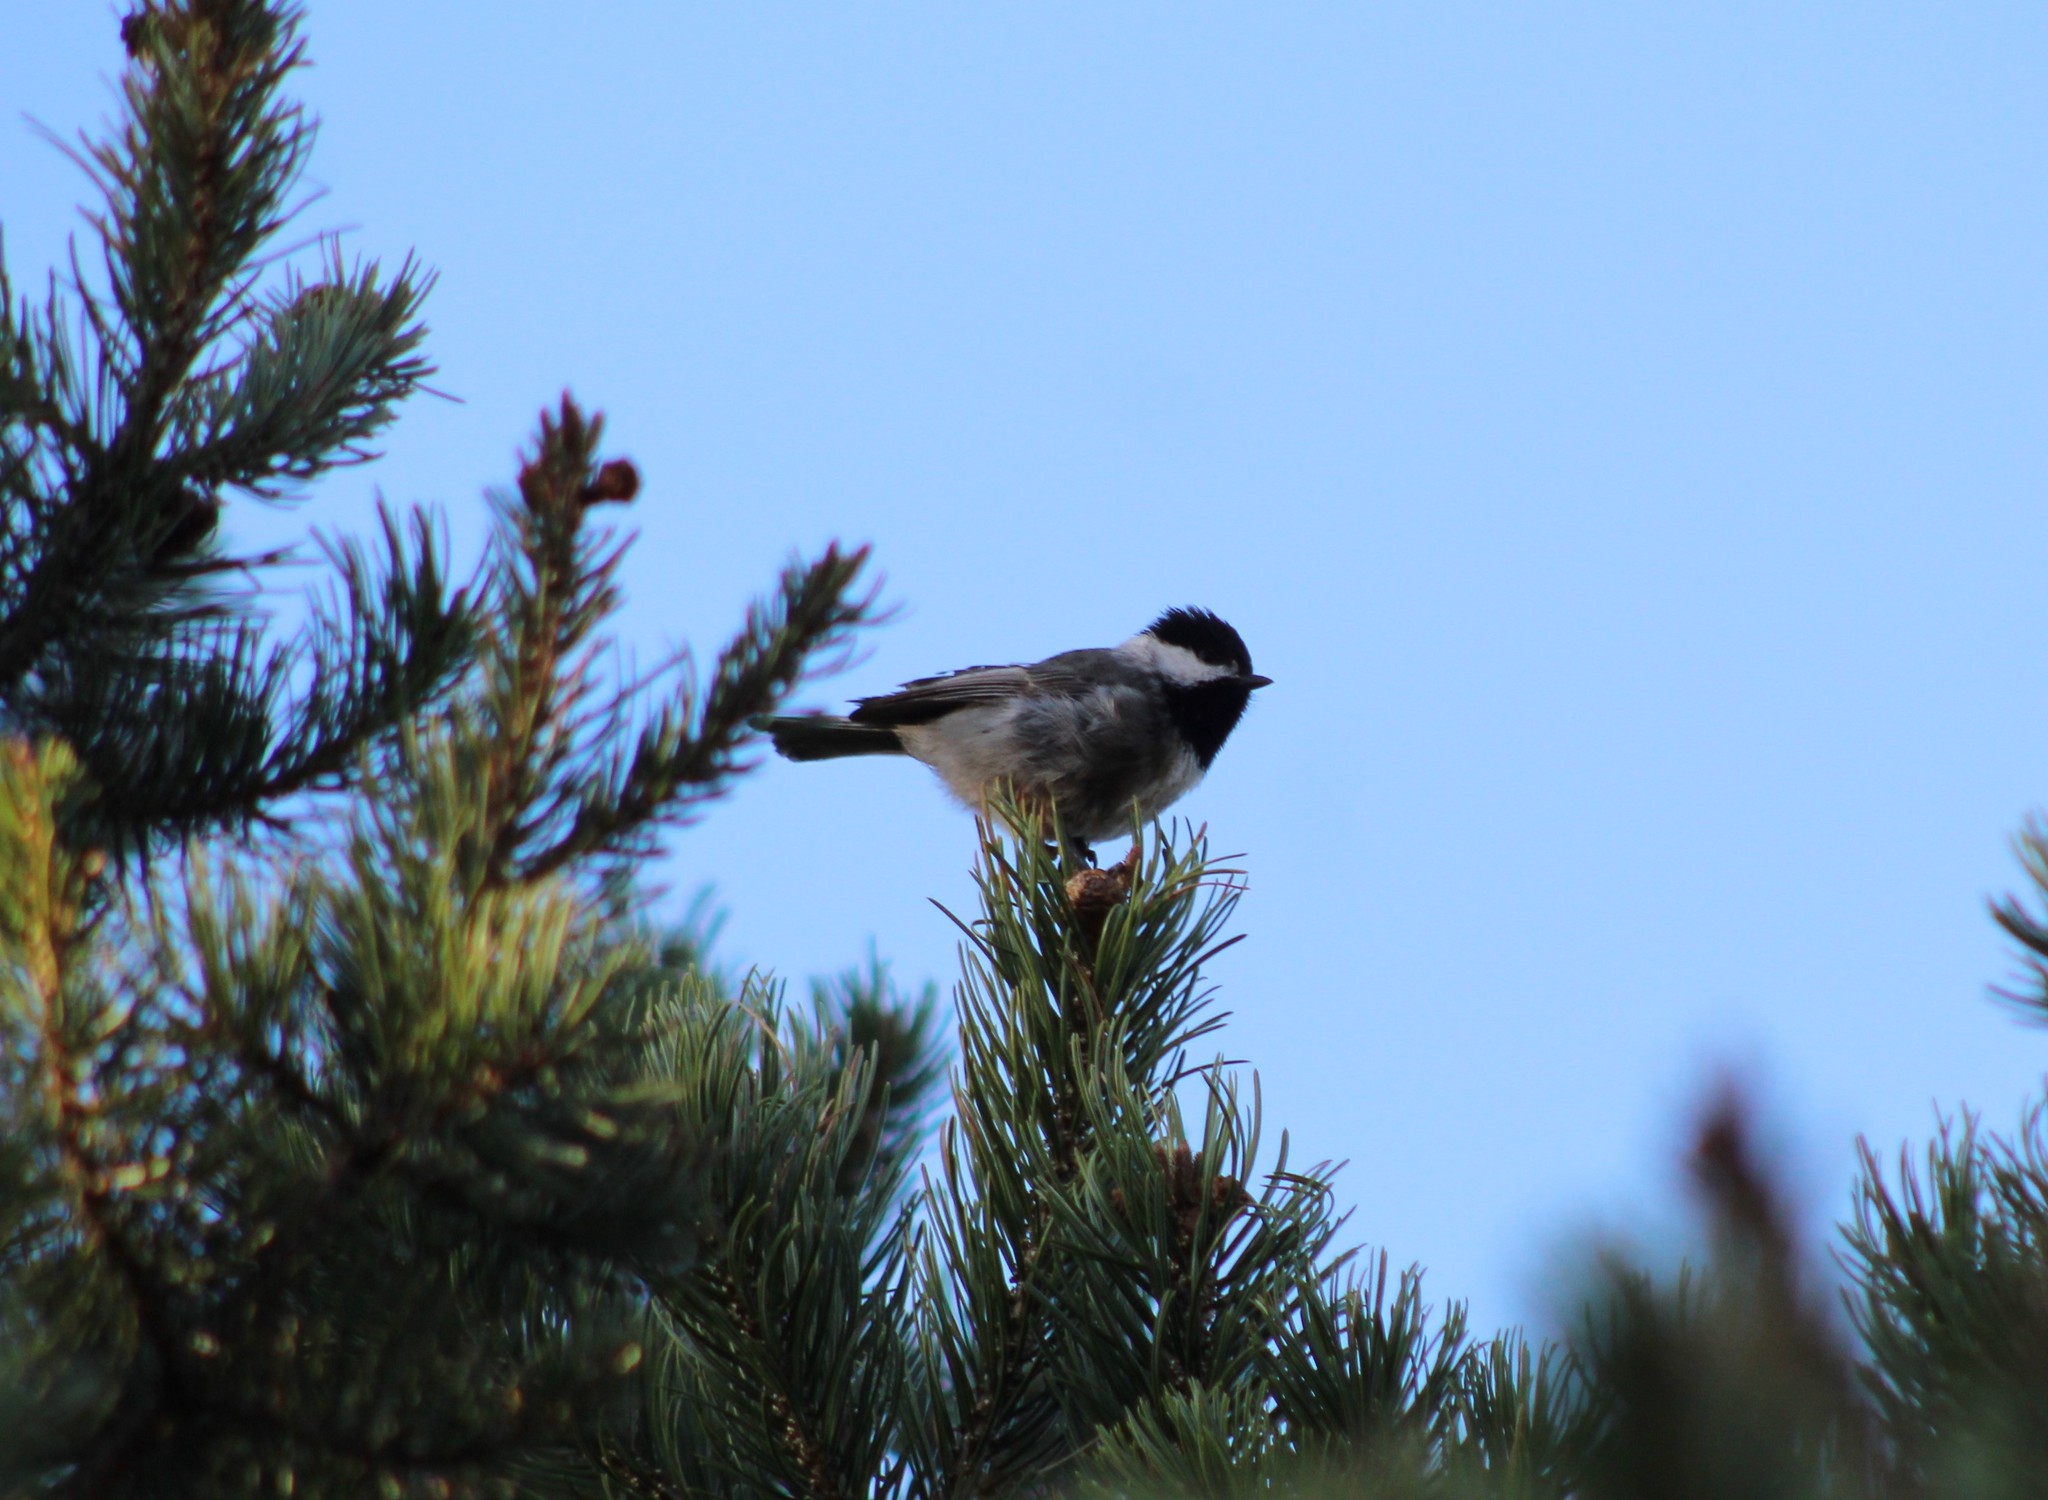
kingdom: Animalia
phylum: Chordata
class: Aves
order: Passeriformes
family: Paridae
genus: Poecile
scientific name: Poecile sclateri
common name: Mexican chickadee
